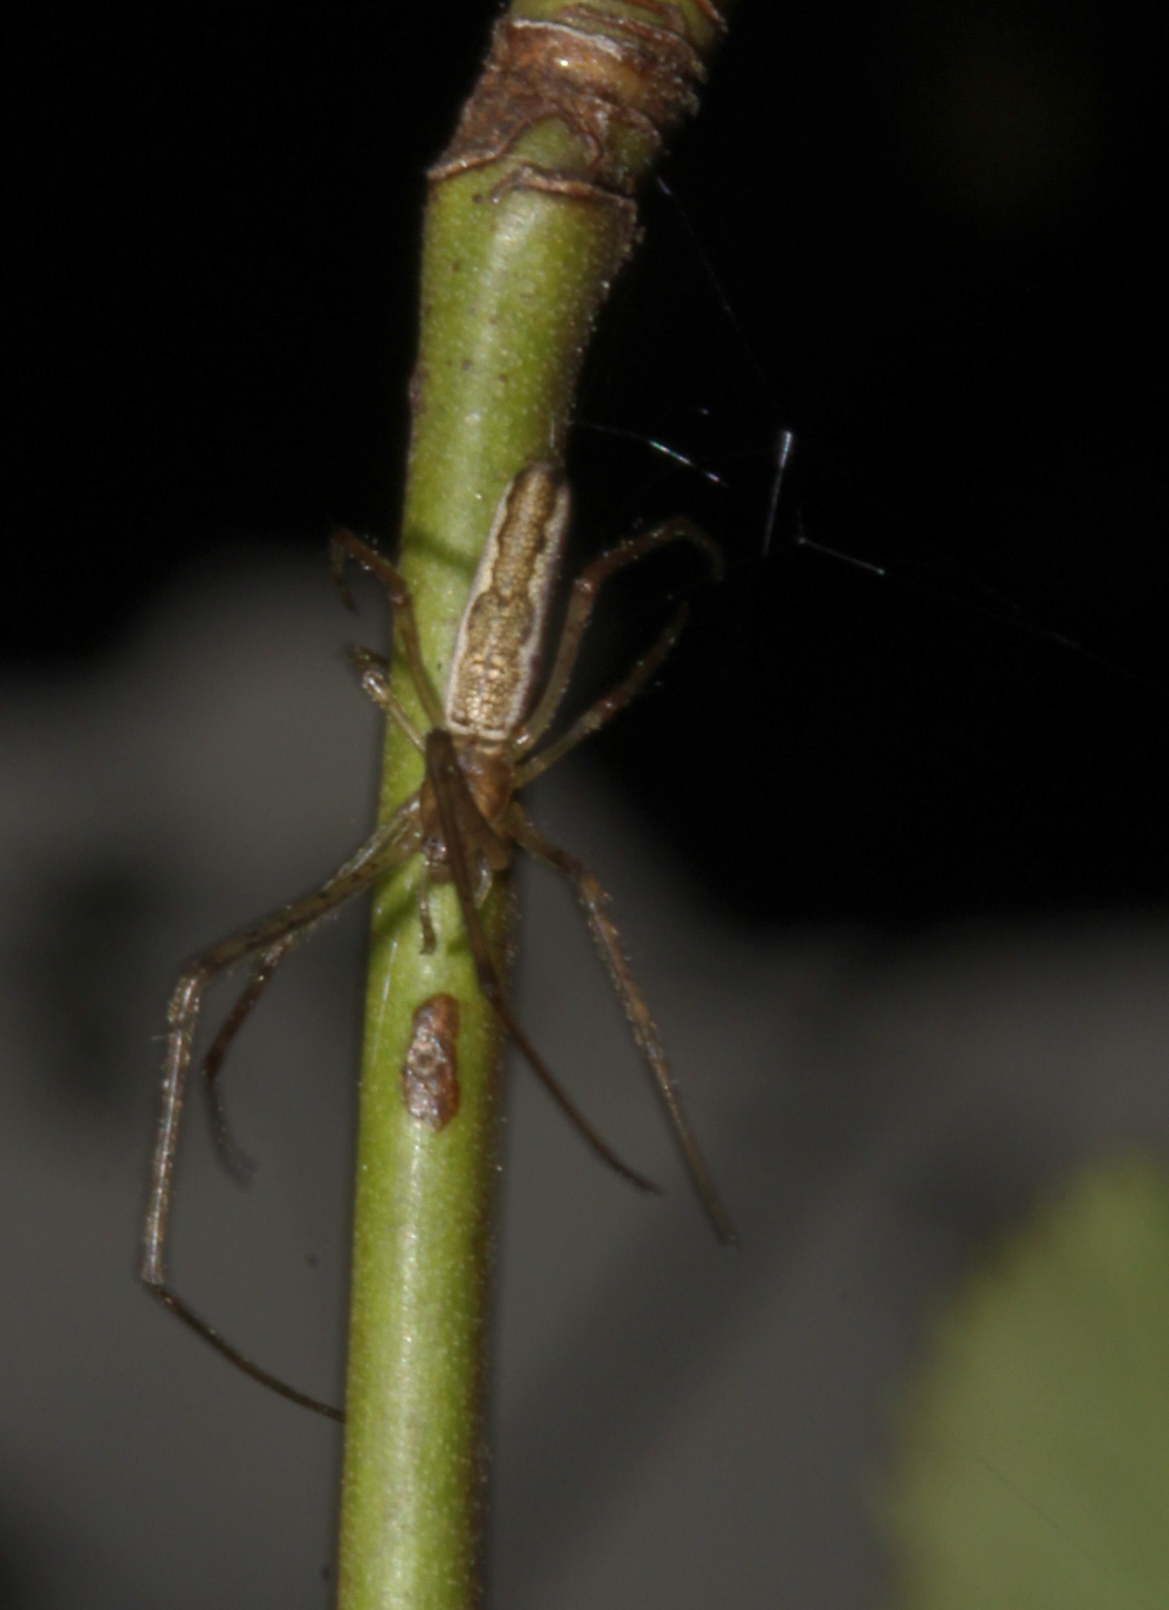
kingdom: Animalia
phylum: Arthropoda
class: Arachnida
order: Araneae
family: Tetragnathidae
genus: Tetragnatha
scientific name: Tetragnatha
